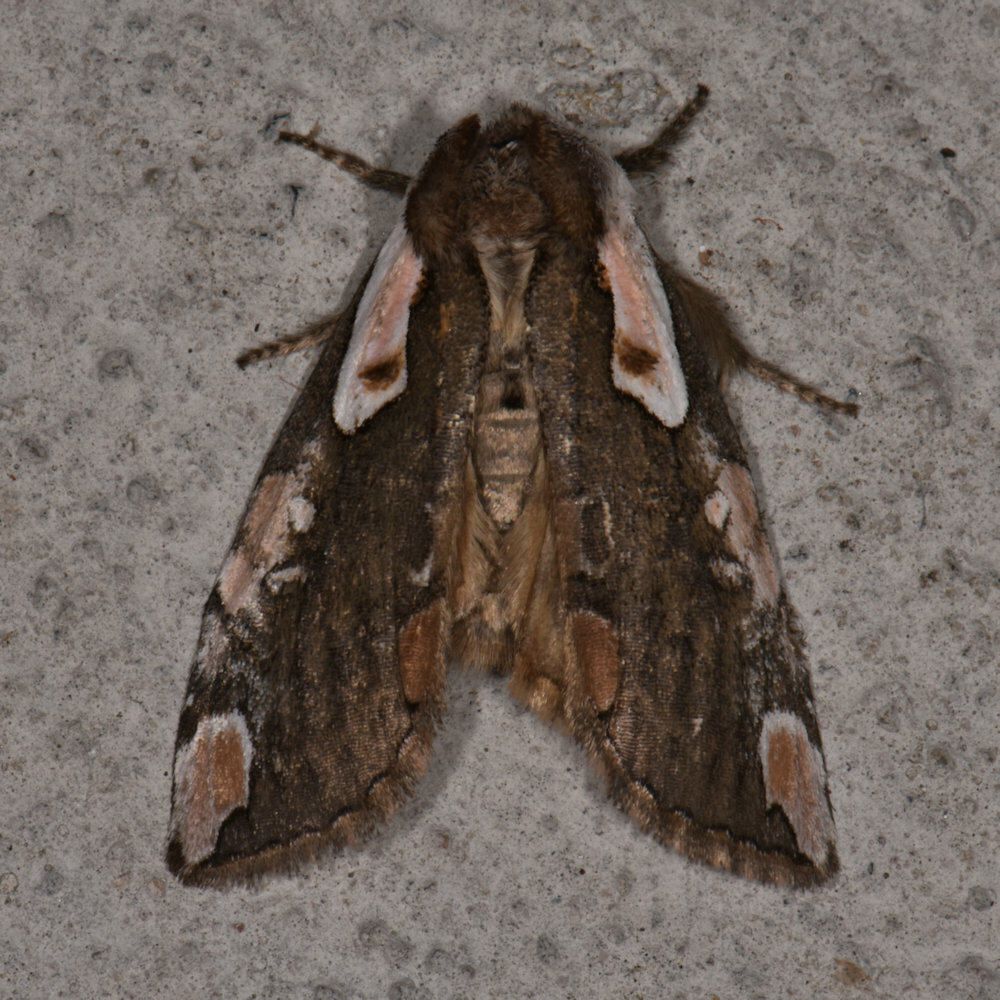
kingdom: Animalia
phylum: Arthropoda
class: Insecta
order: Lepidoptera
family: Drepanidae
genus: Euthyatira
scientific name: Euthyatira pudens
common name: Dogwood thyatirid moth
